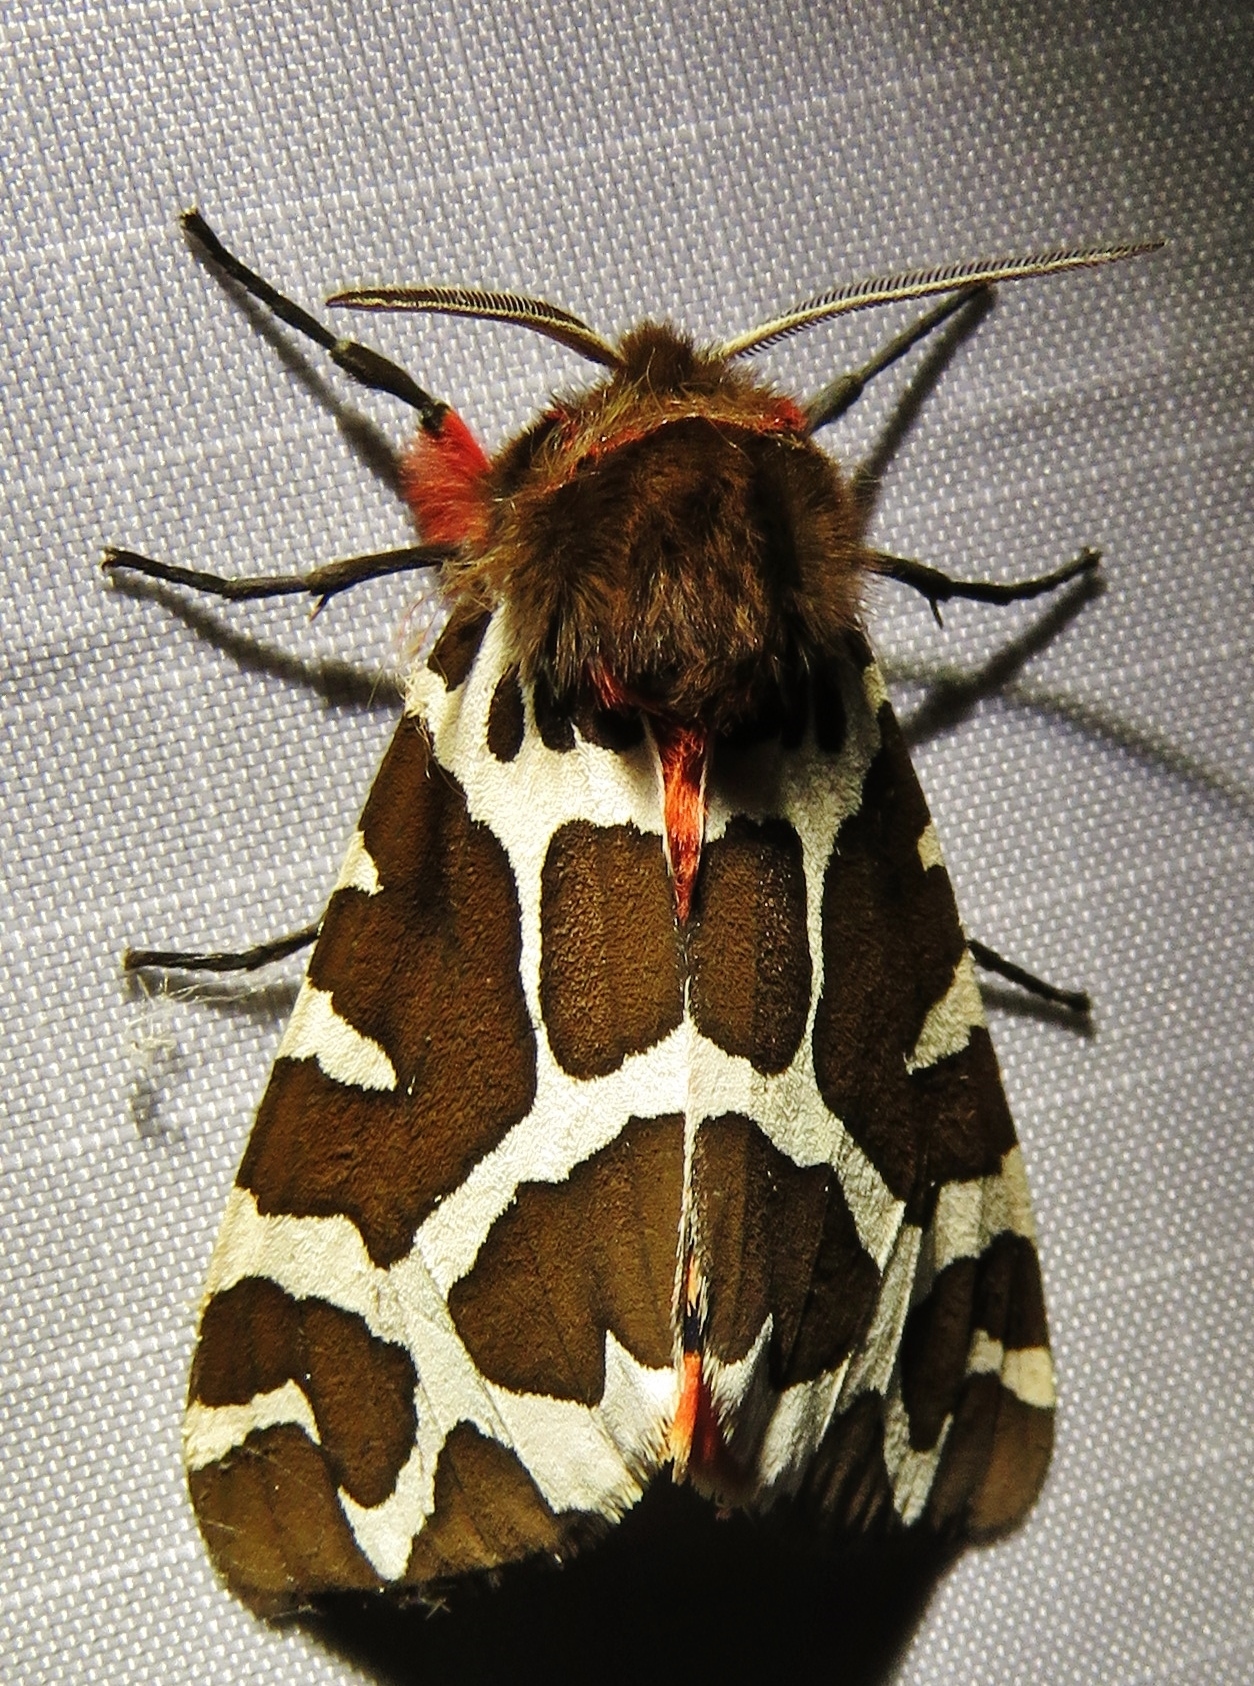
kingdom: Animalia
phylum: Arthropoda
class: Insecta
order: Lepidoptera
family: Erebidae
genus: Arctia
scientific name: Arctia caja
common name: Garden tiger
